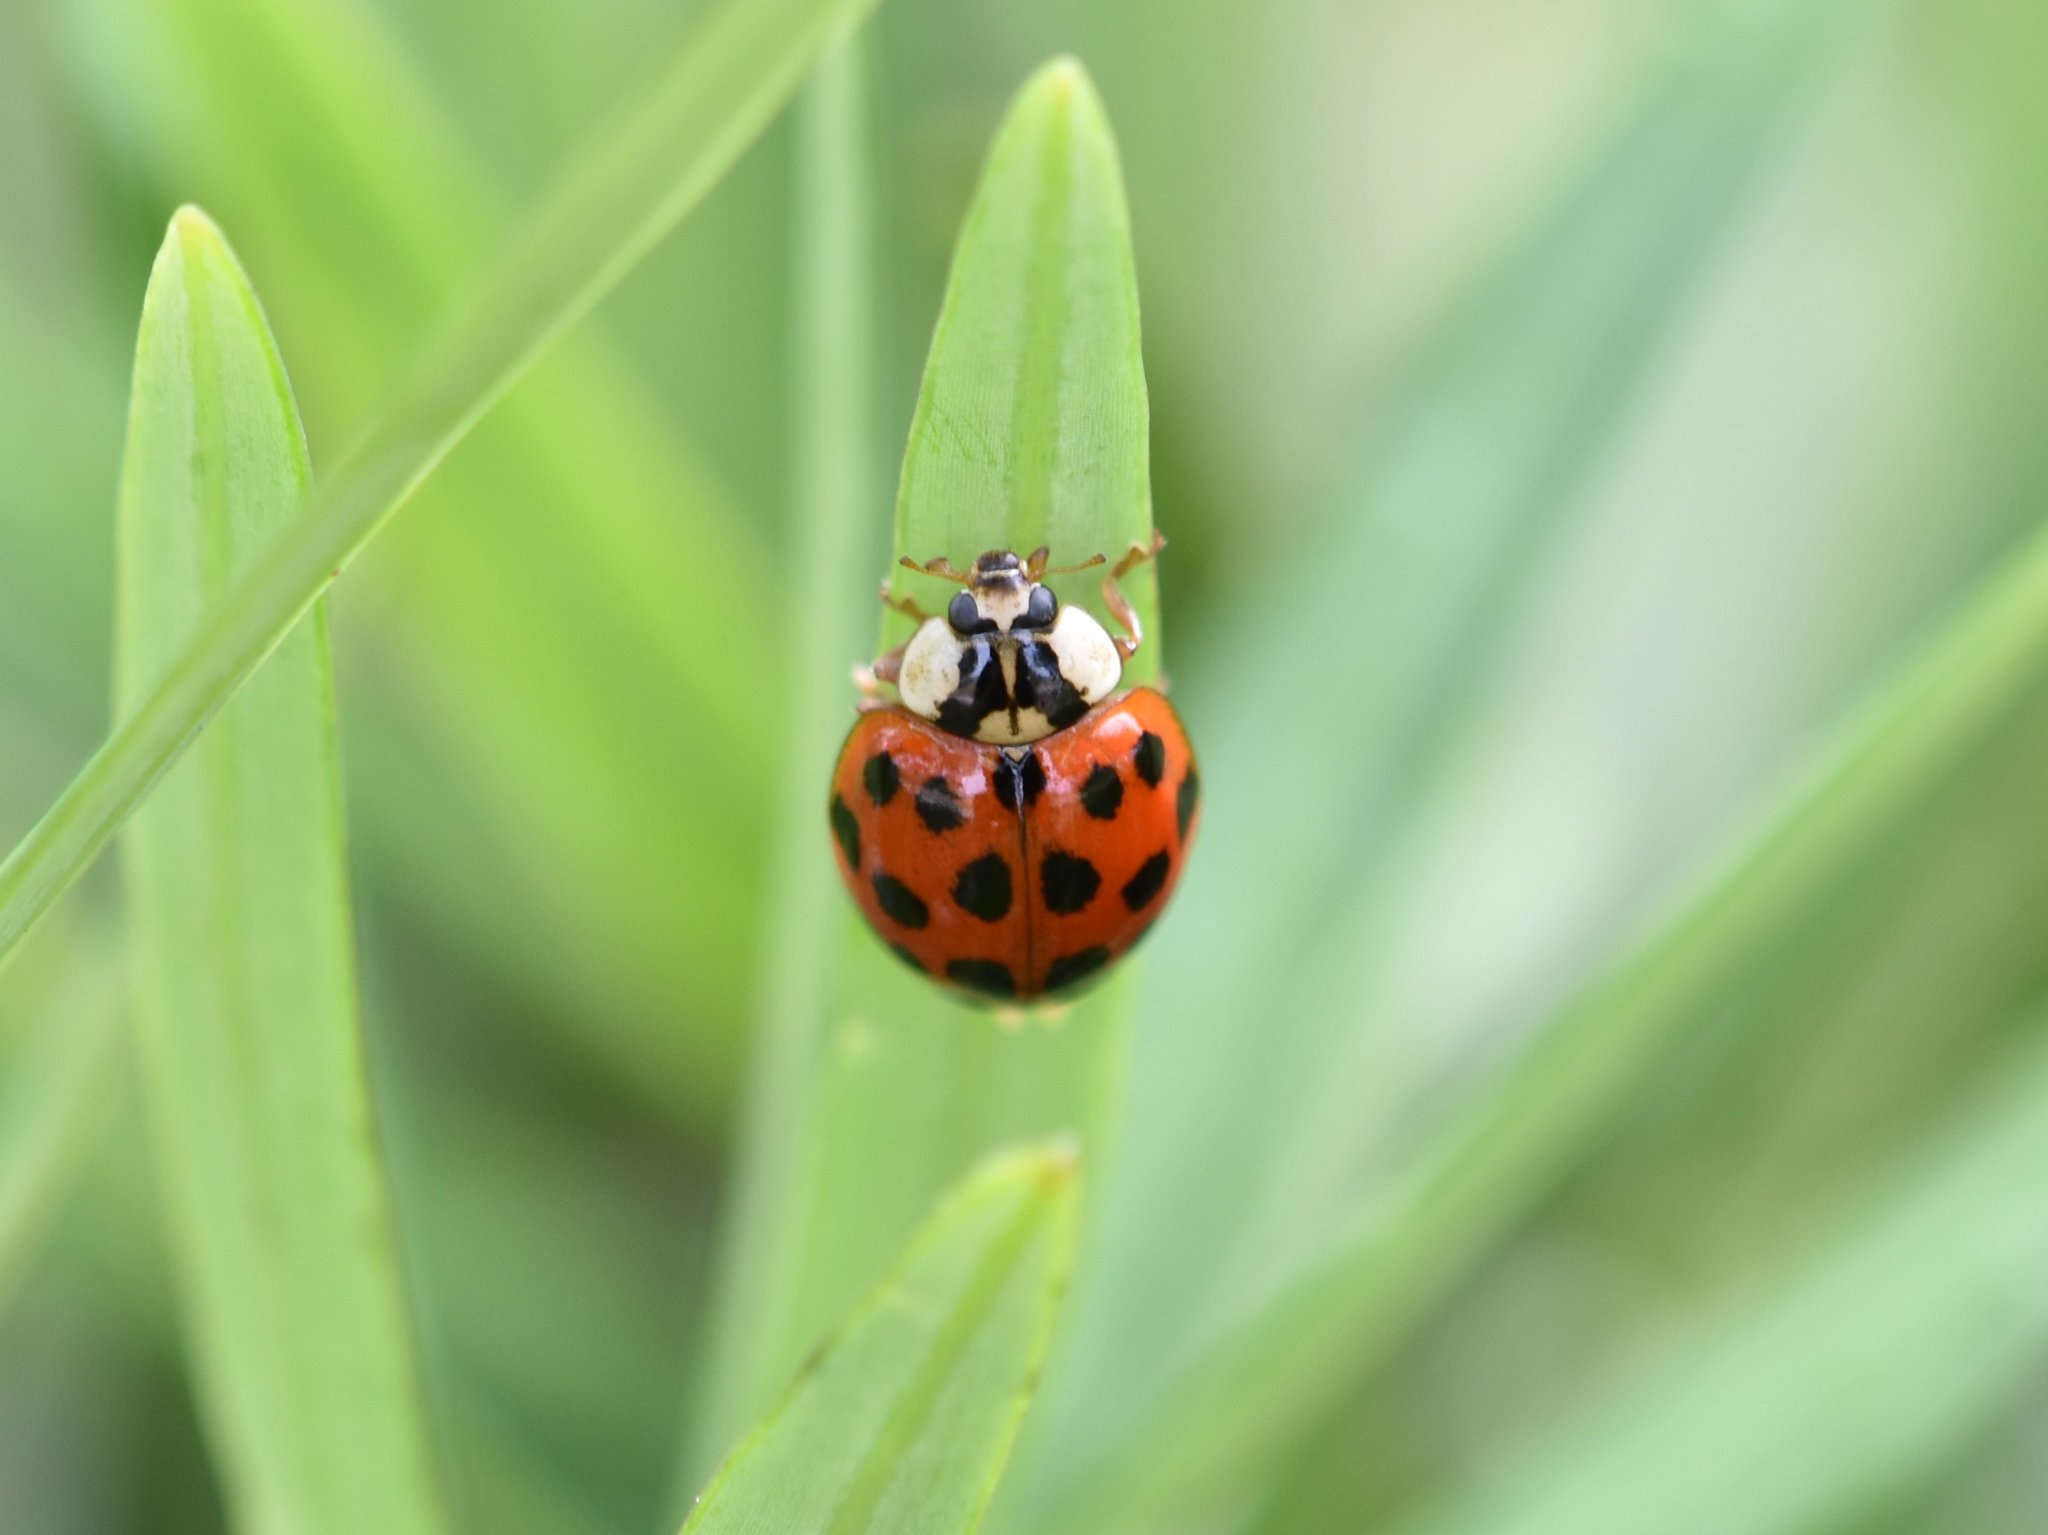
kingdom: Animalia
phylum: Arthropoda
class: Insecta
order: Coleoptera
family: Coccinellidae
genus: Harmonia
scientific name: Harmonia axyridis
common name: Harlequin ladybird
